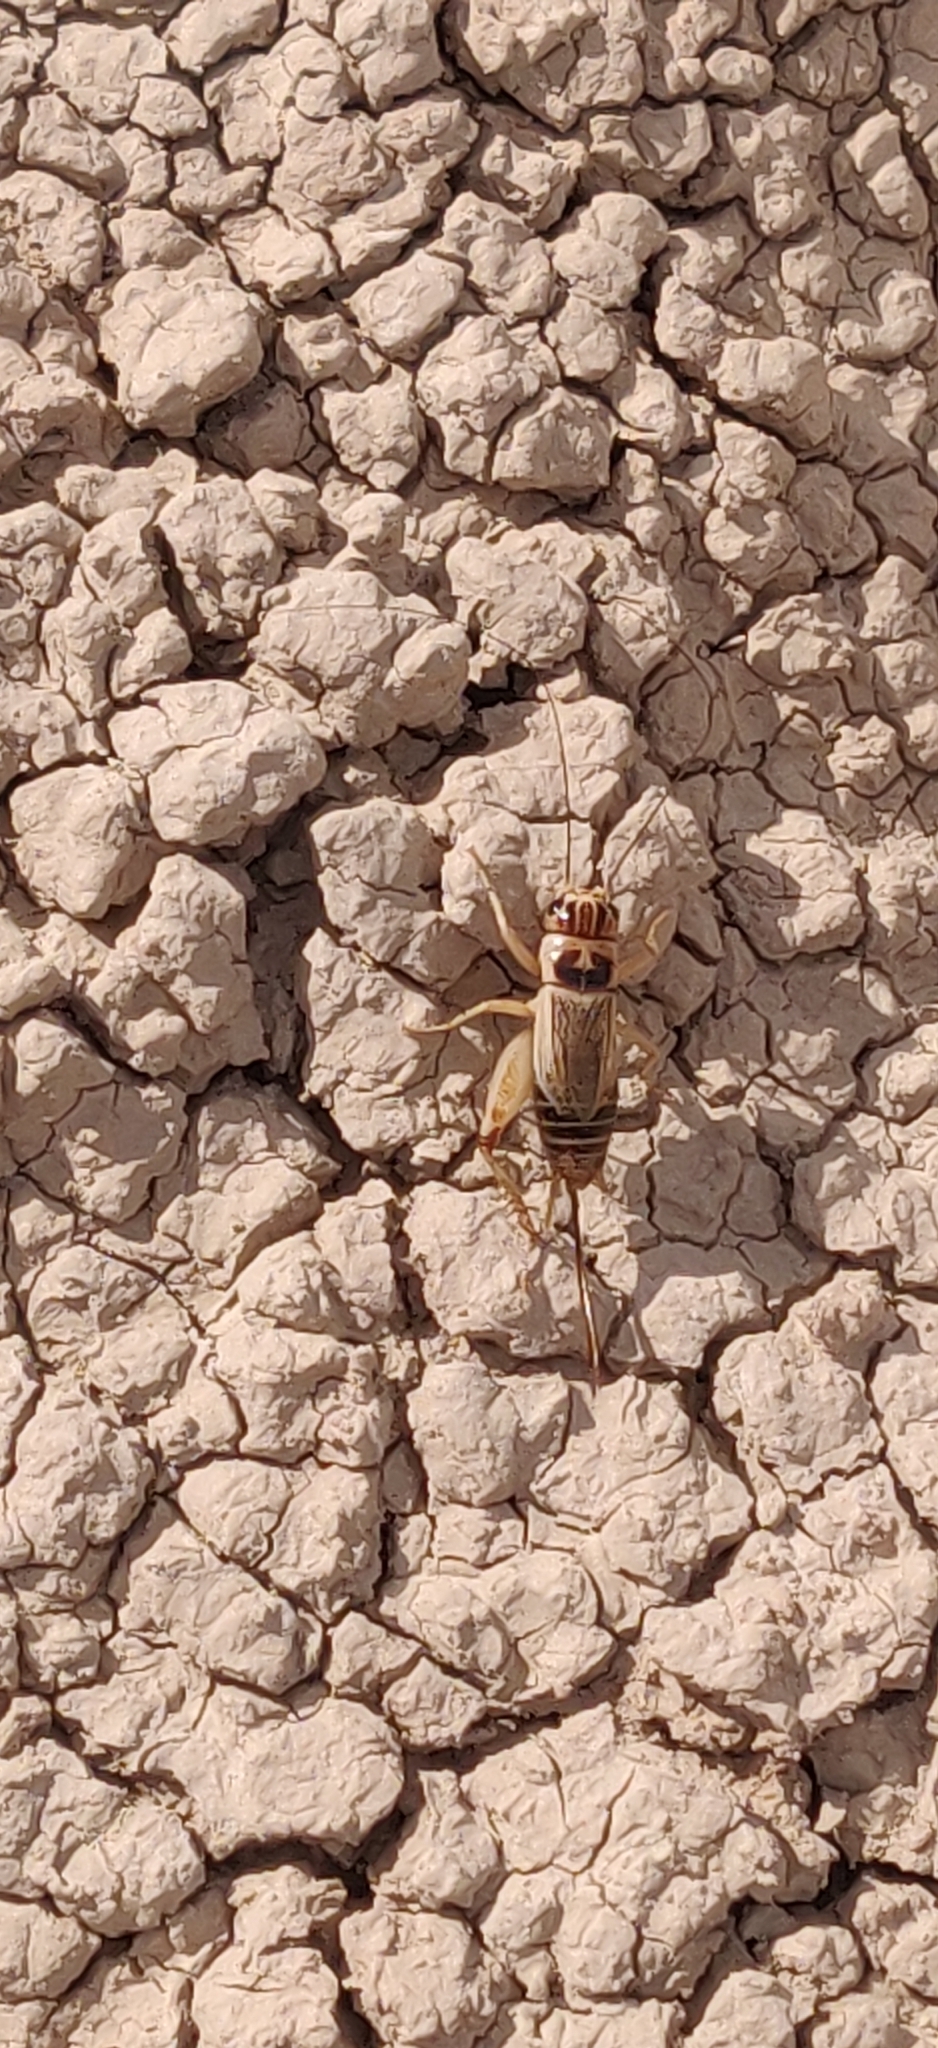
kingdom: Animalia
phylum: Arthropoda
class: Insecta
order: Orthoptera
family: Gryllidae
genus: Gryllus
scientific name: Gryllus personatus
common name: Badlands cricket
